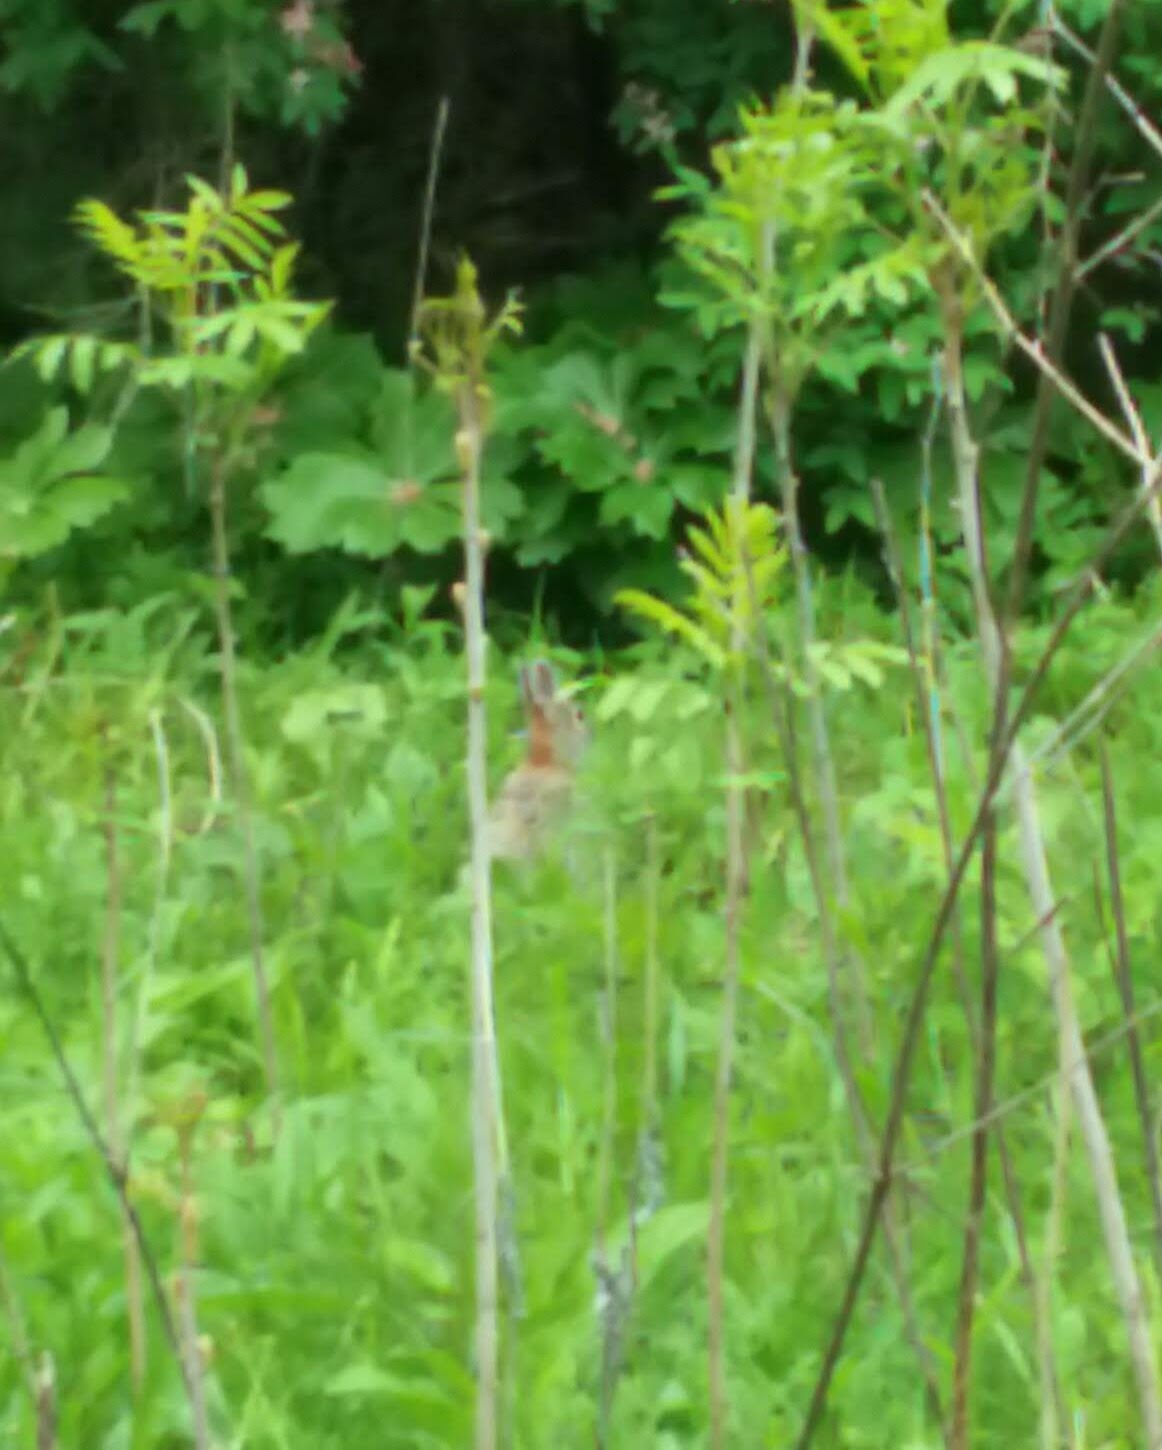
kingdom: Animalia
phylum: Chordata
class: Mammalia
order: Lagomorpha
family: Leporidae
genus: Sylvilagus
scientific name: Sylvilagus floridanus
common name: Eastern cottontail
